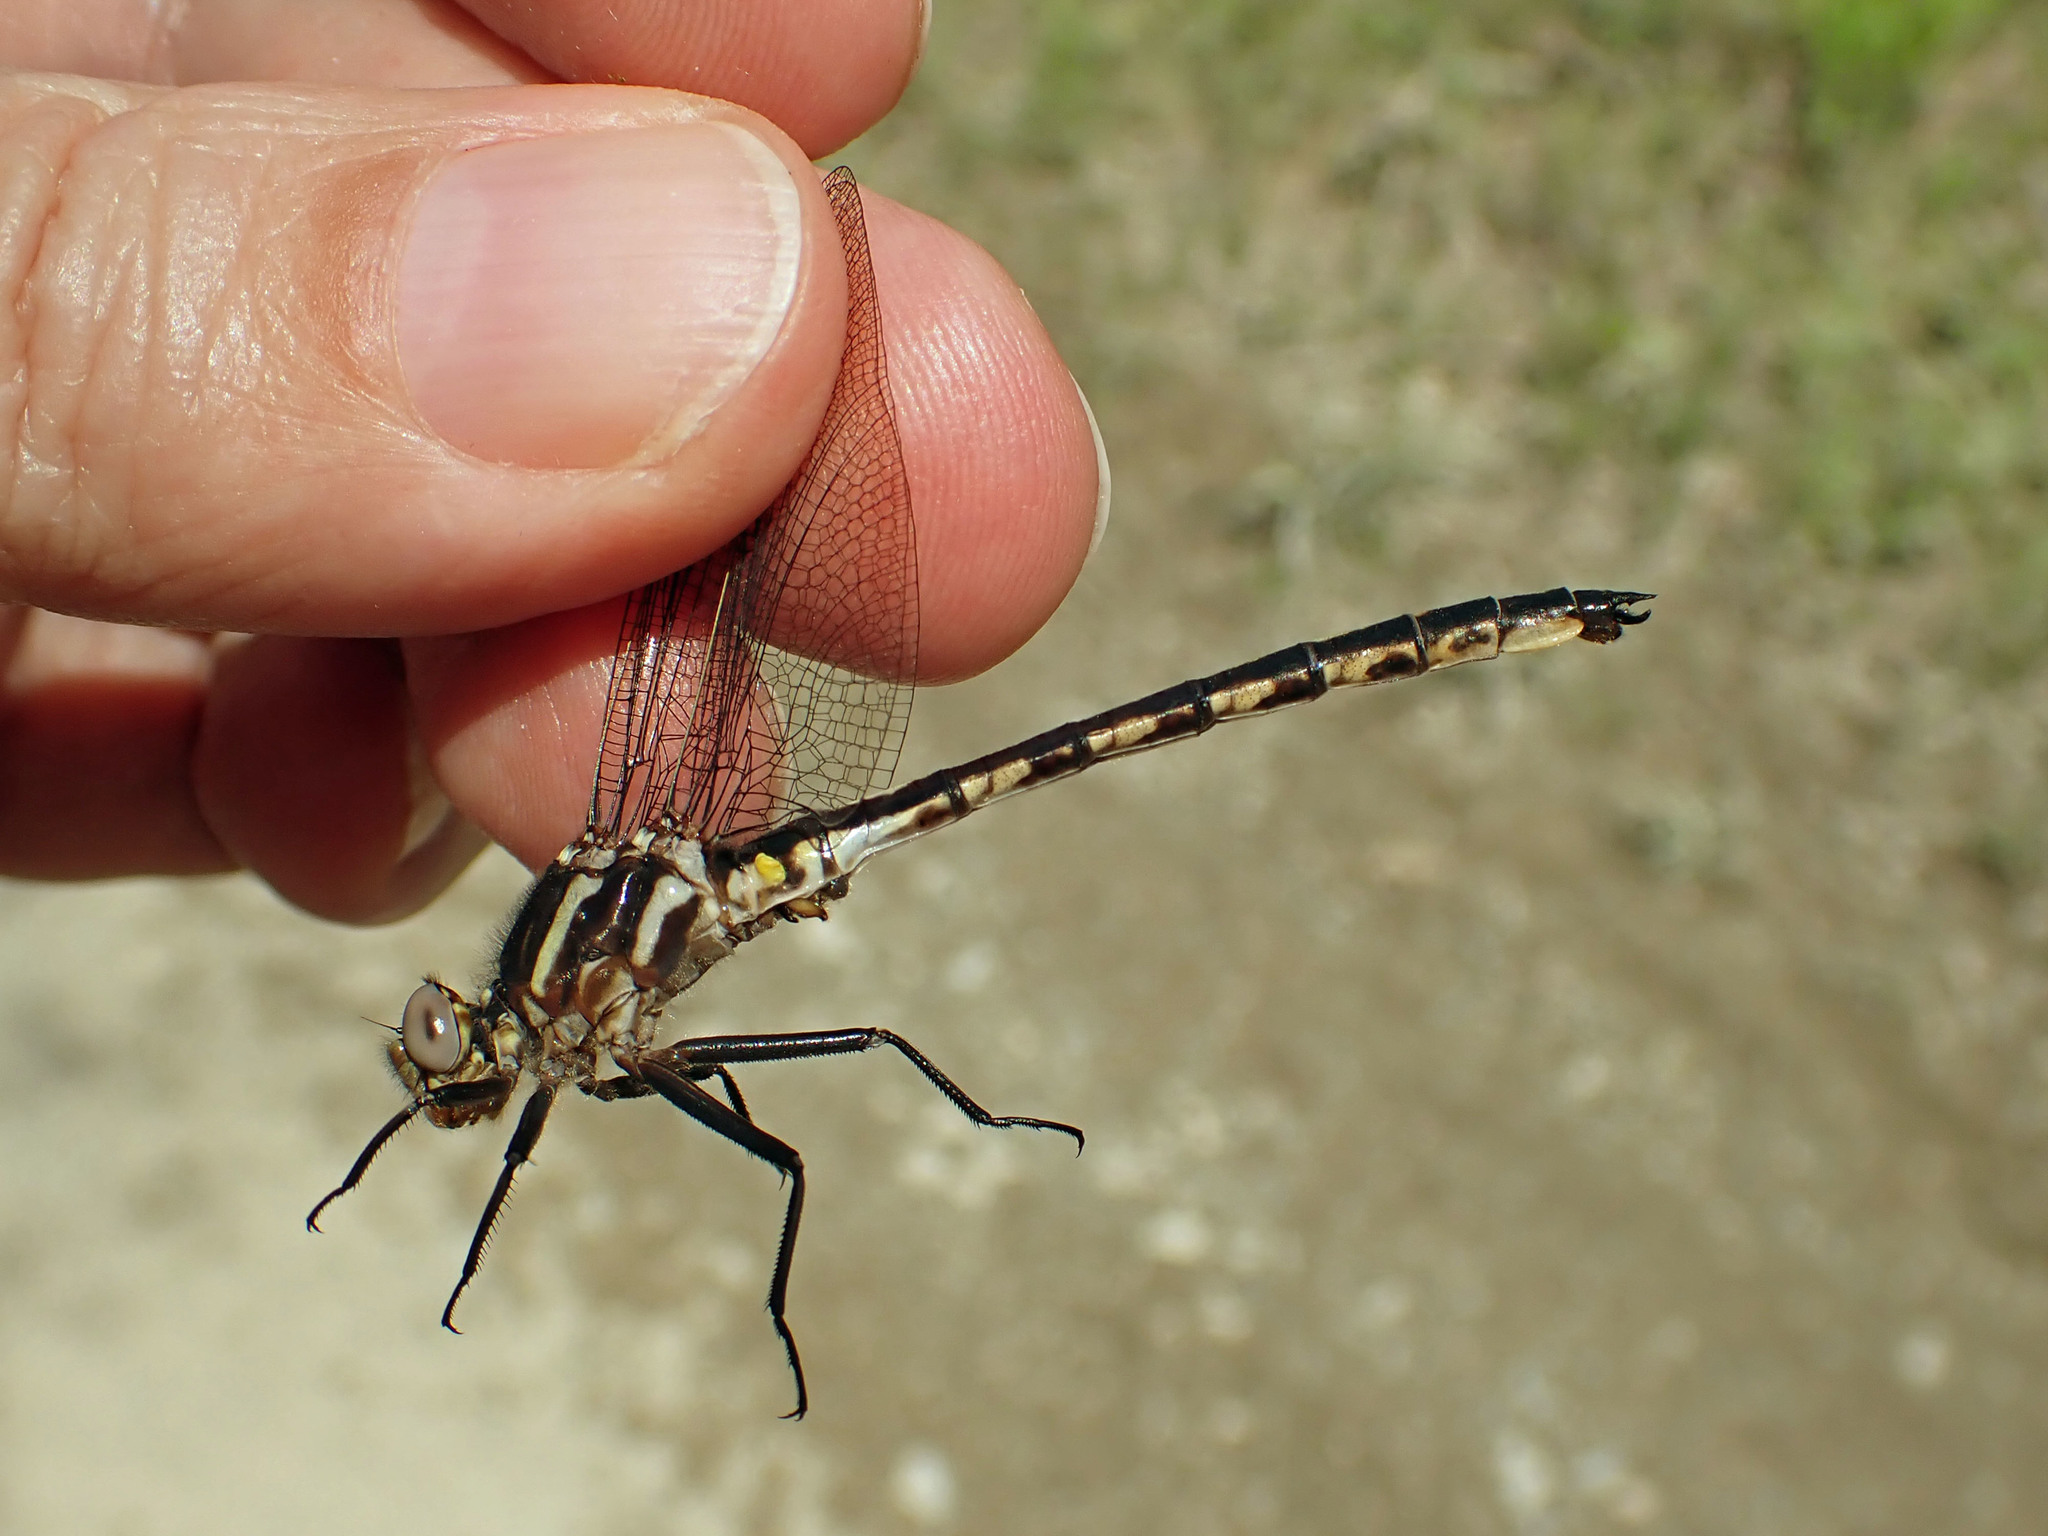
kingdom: Animalia
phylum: Arthropoda
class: Insecta
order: Odonata
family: Gomphidae
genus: Phanogomphus
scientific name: Phanogomphus spicatus
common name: Dusky clubtail
